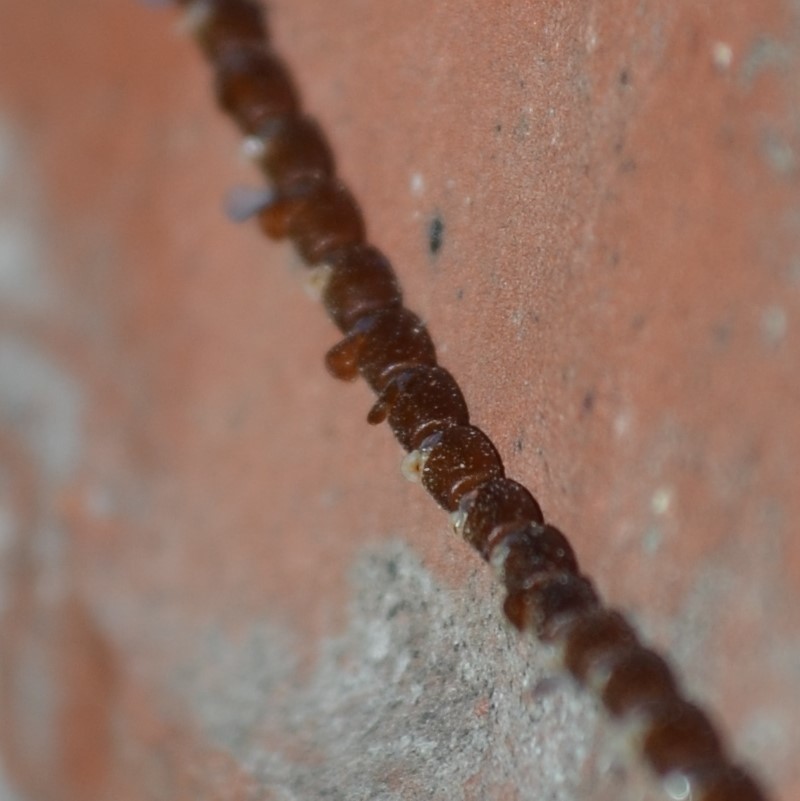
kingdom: Animalia
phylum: Arthropoda
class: Insecta
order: Hemiptera
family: Coreidae
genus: Leptoglossus
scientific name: Leptoglossus
